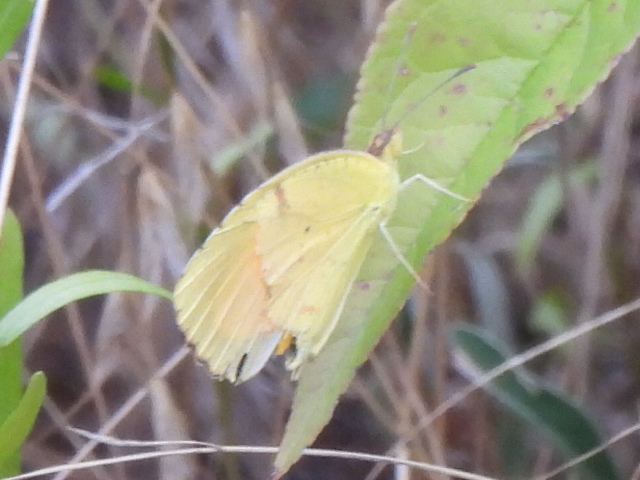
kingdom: Animalia
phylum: Arthropoda
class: Insecta
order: Lepidoptera
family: Pieridae
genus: Abaeis
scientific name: Abaeis nicippe
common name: Sleepy orange
